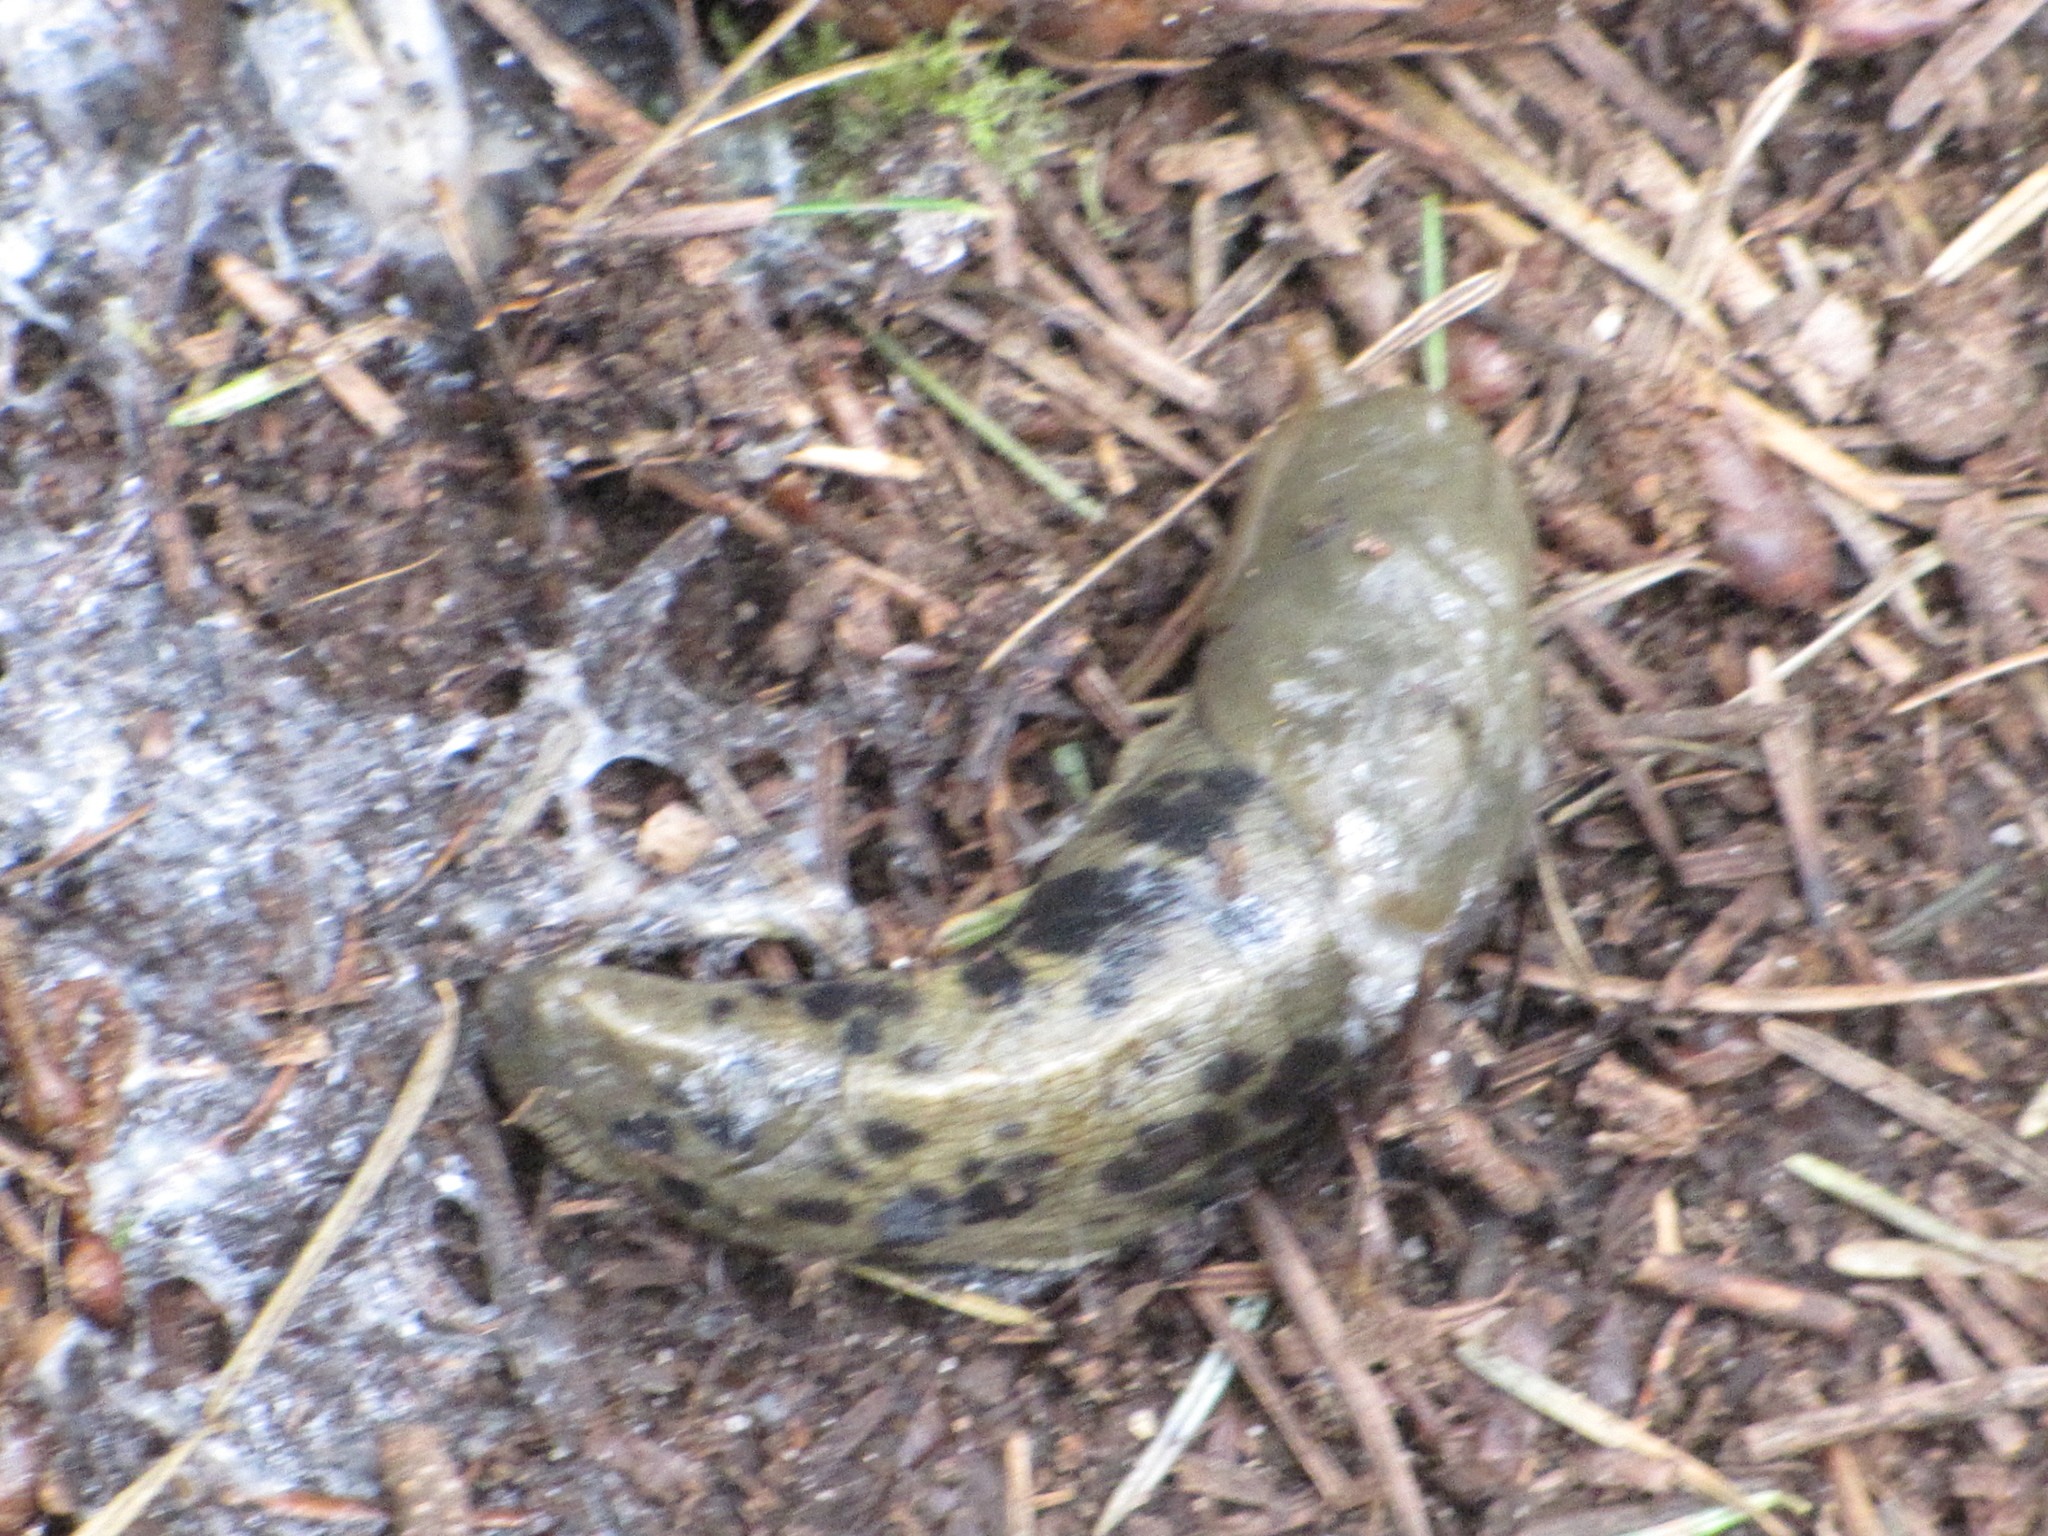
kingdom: Animalia
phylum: Mollusca
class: Gastropoda
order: Stylommatophora
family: Ariolimacidae
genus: Ariolimax
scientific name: Ariolimax columbianus
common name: Pacific banana slug
